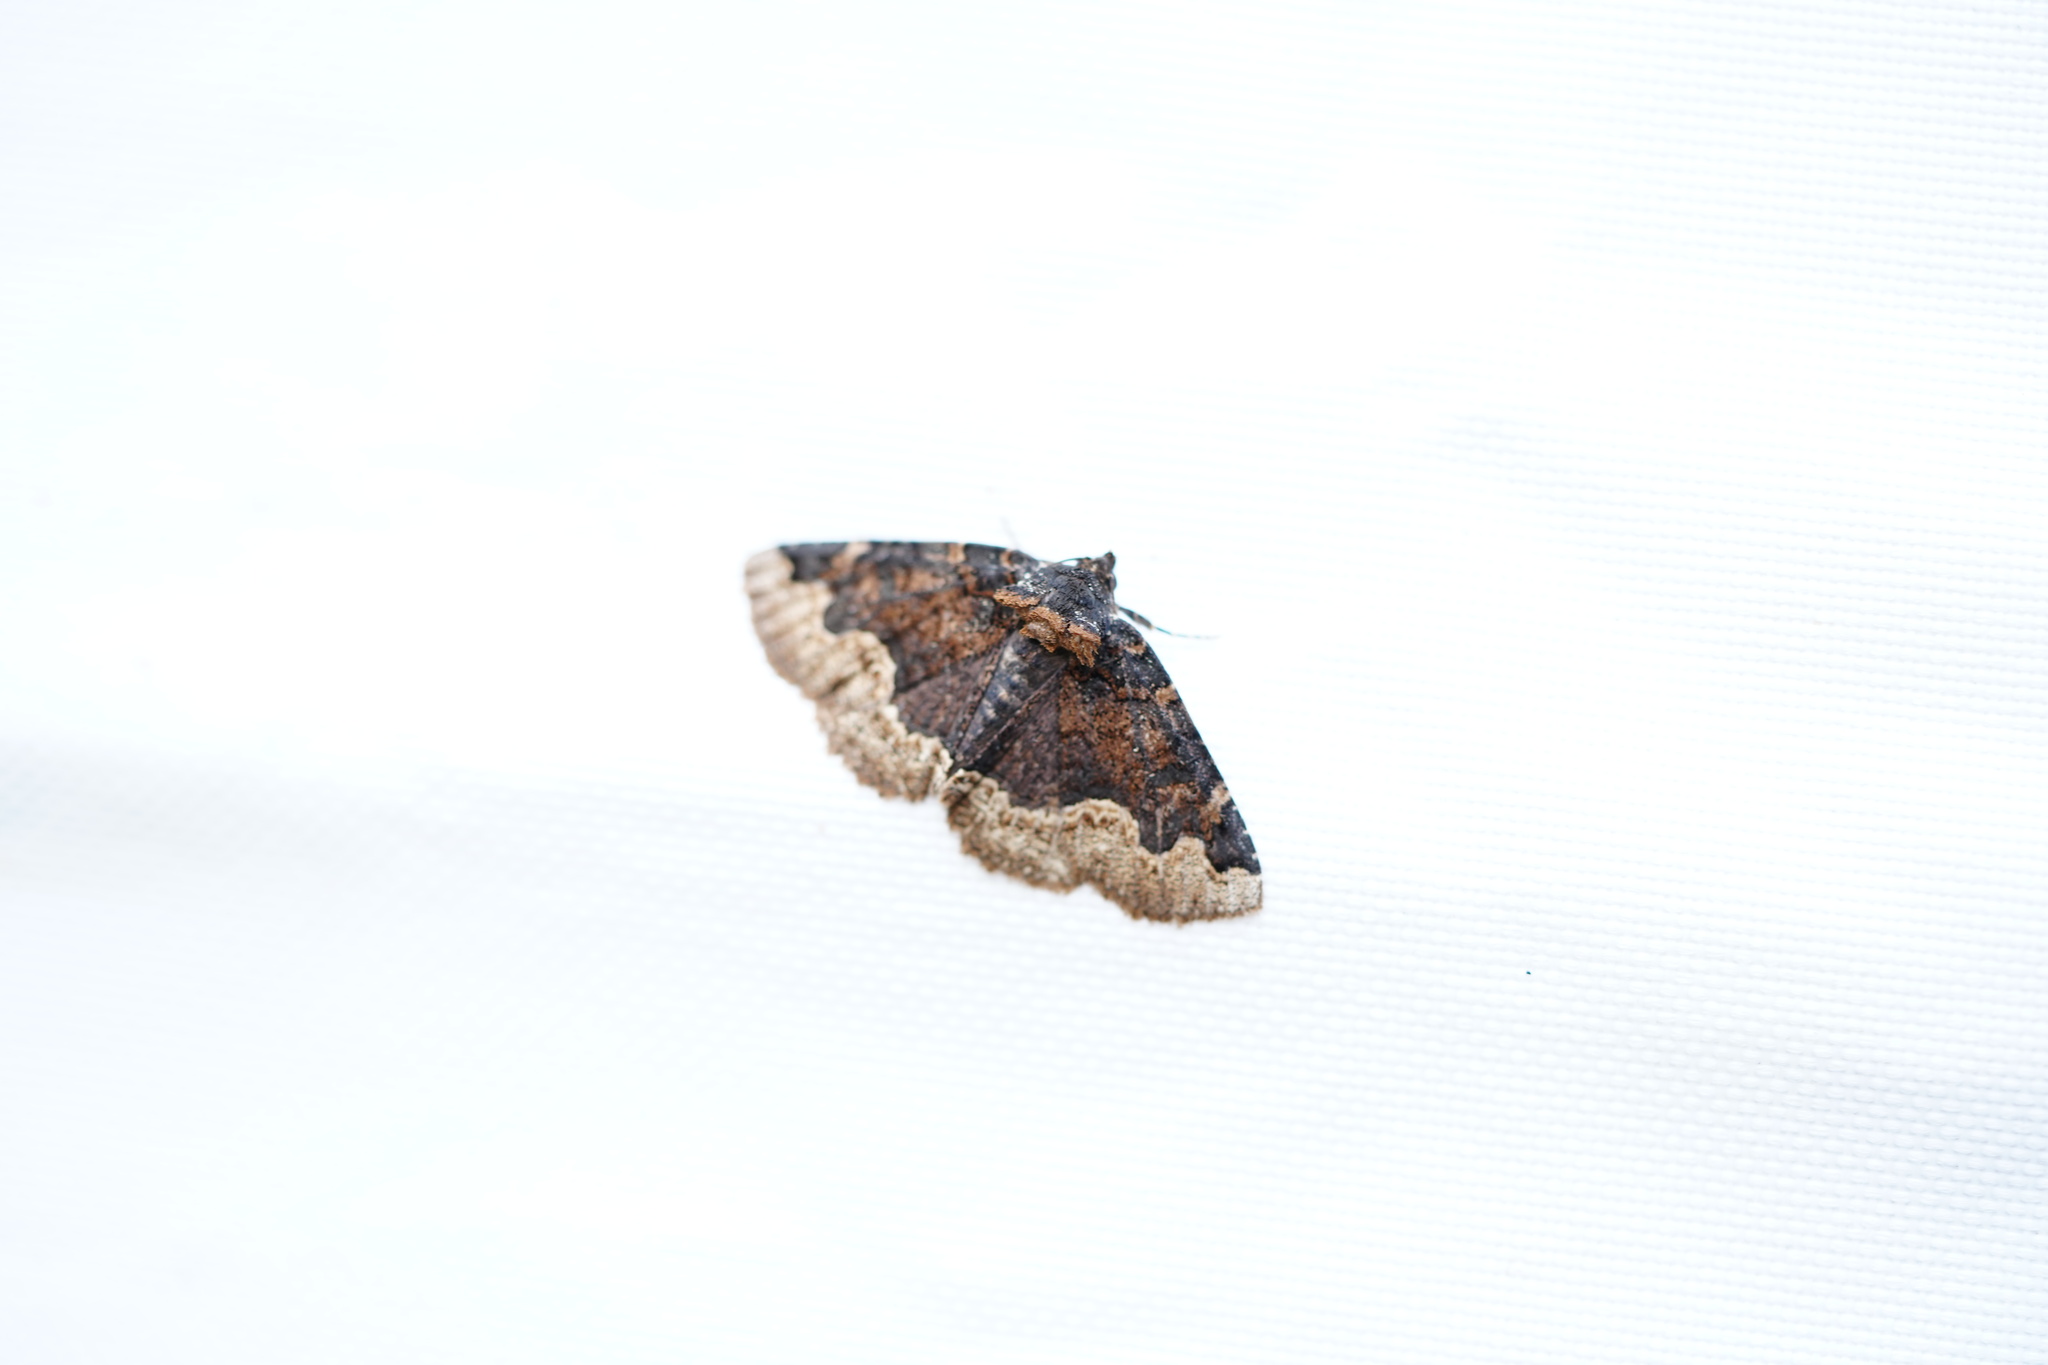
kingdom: Animalia
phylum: Arthropoda
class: Insecta
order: Lepidoptera
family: Erebidae
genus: Zale
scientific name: Zale horrida
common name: Horrid zale moth
